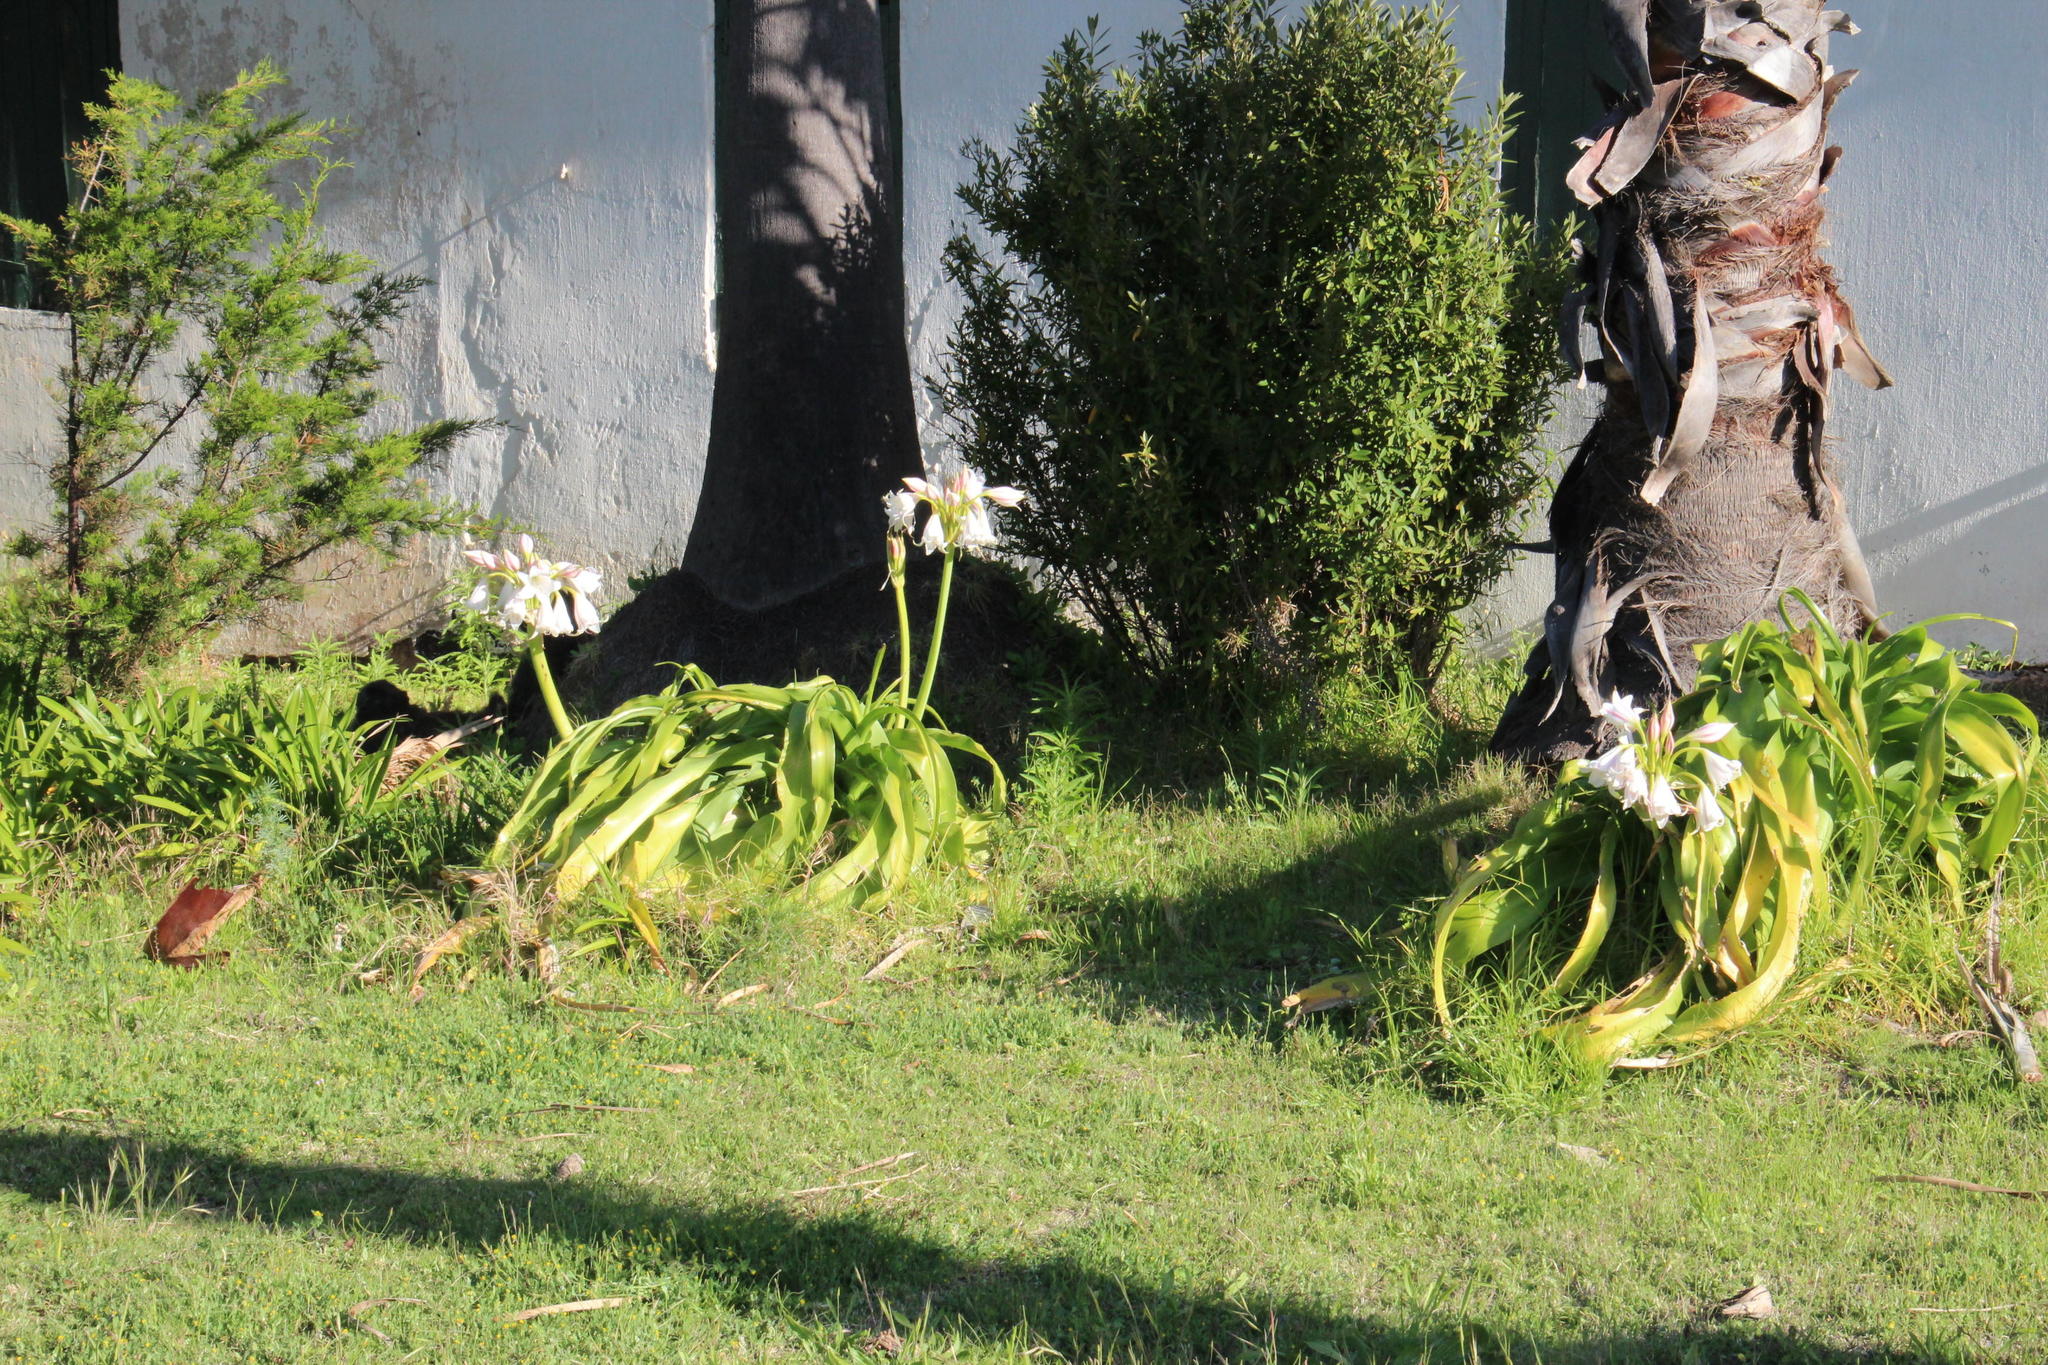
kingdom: Plantae
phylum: Tracheophyta
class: Liliopsida
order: Asparagales
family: Amaryllidaceae
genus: Crinum
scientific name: Crinum macowanii
